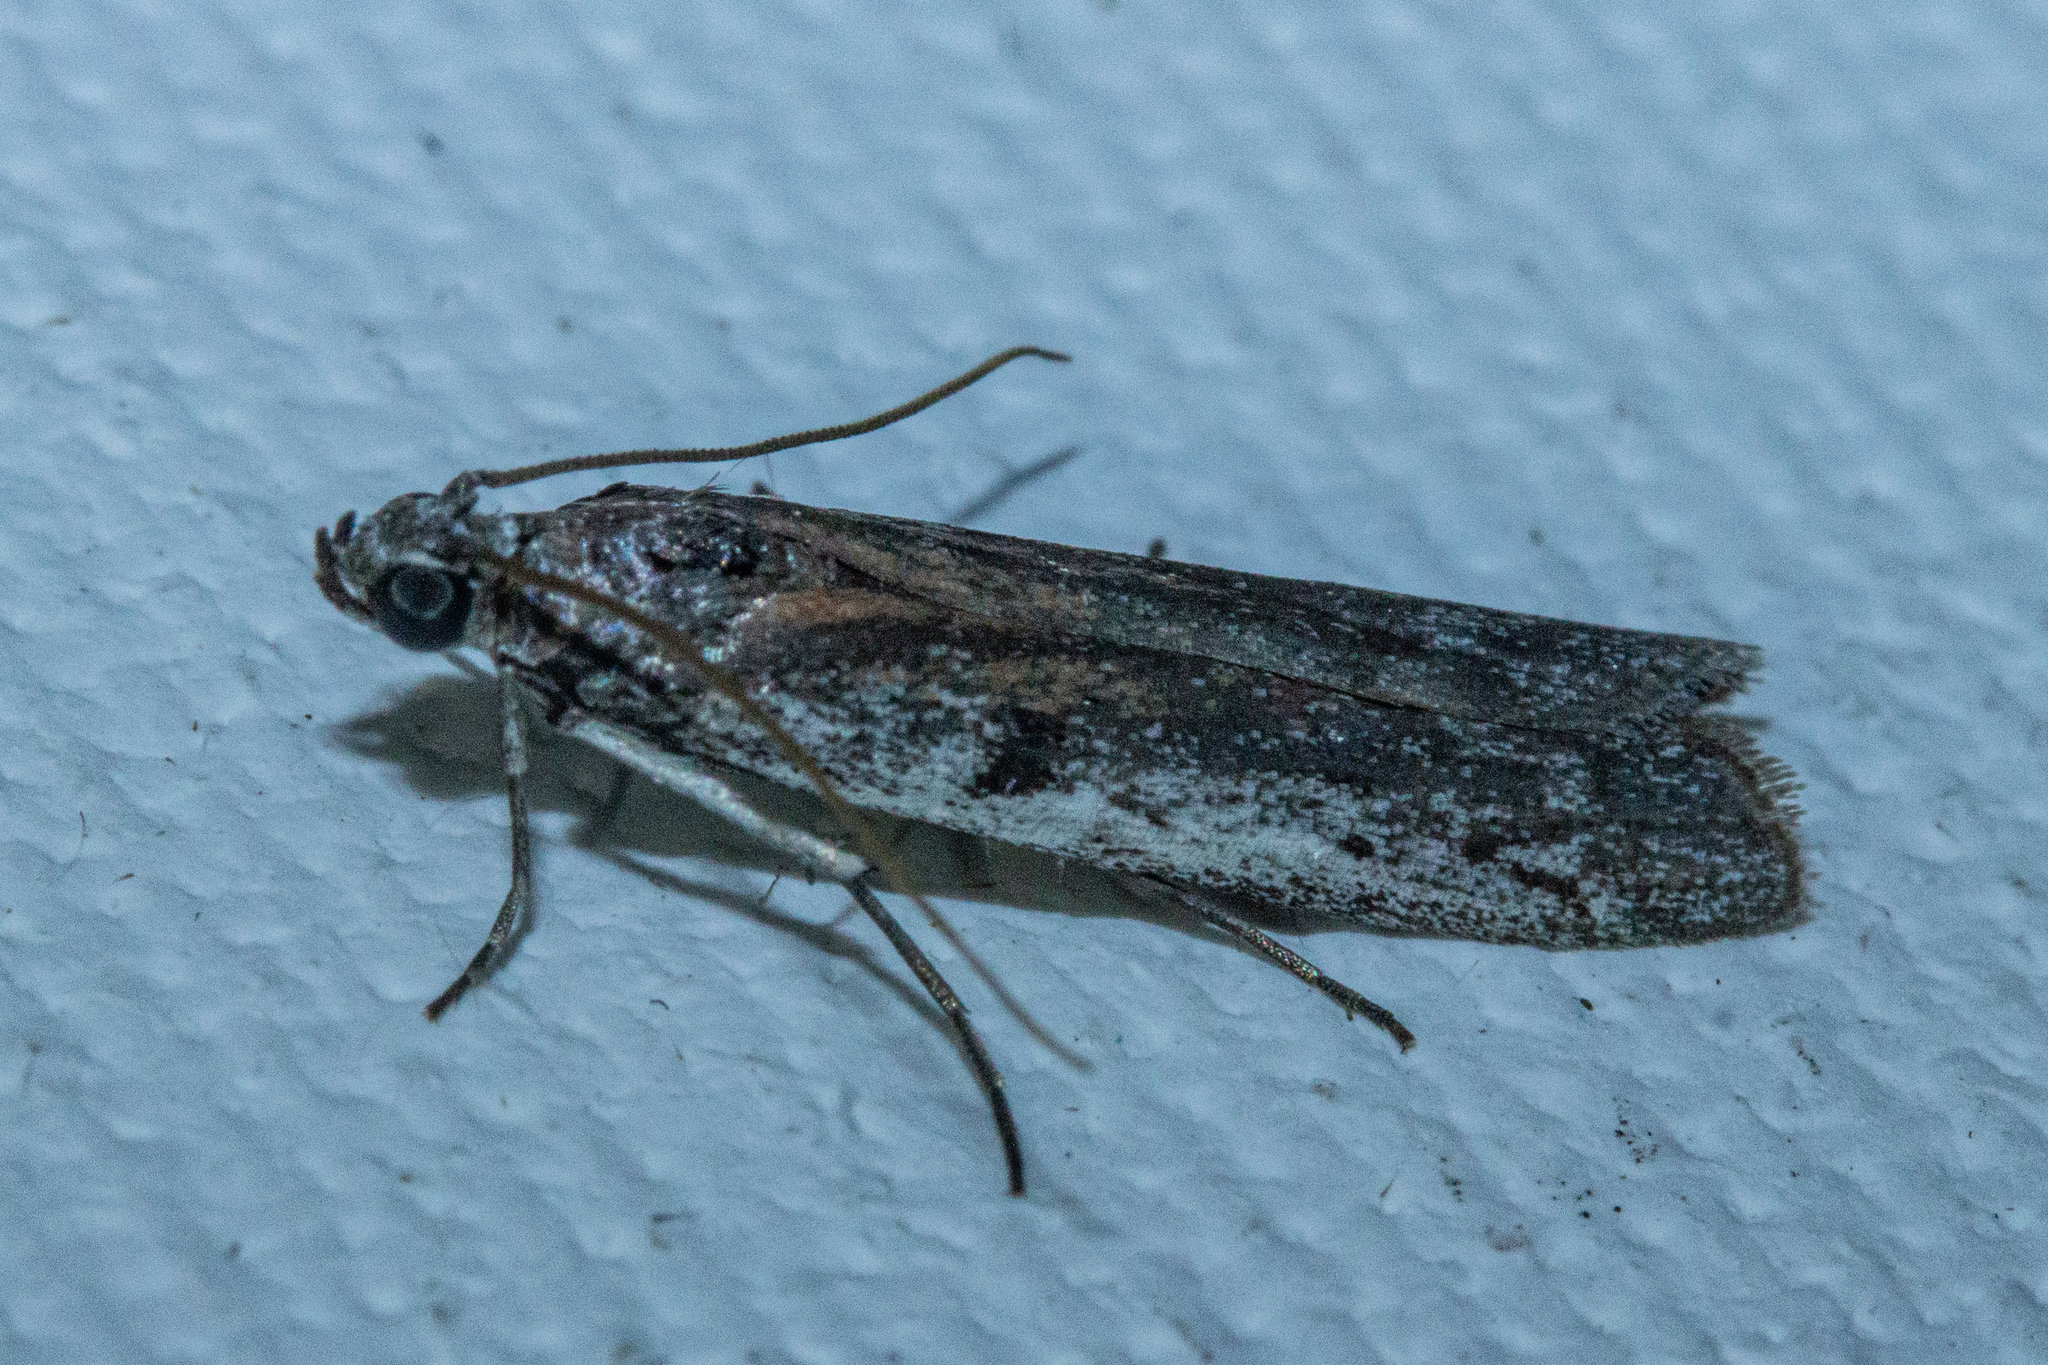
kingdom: Animalia
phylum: Arthropoda
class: Insecta
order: Lepidoptera
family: Pyralidae
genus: Patagoniodes
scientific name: Patagoniodes farinaria
